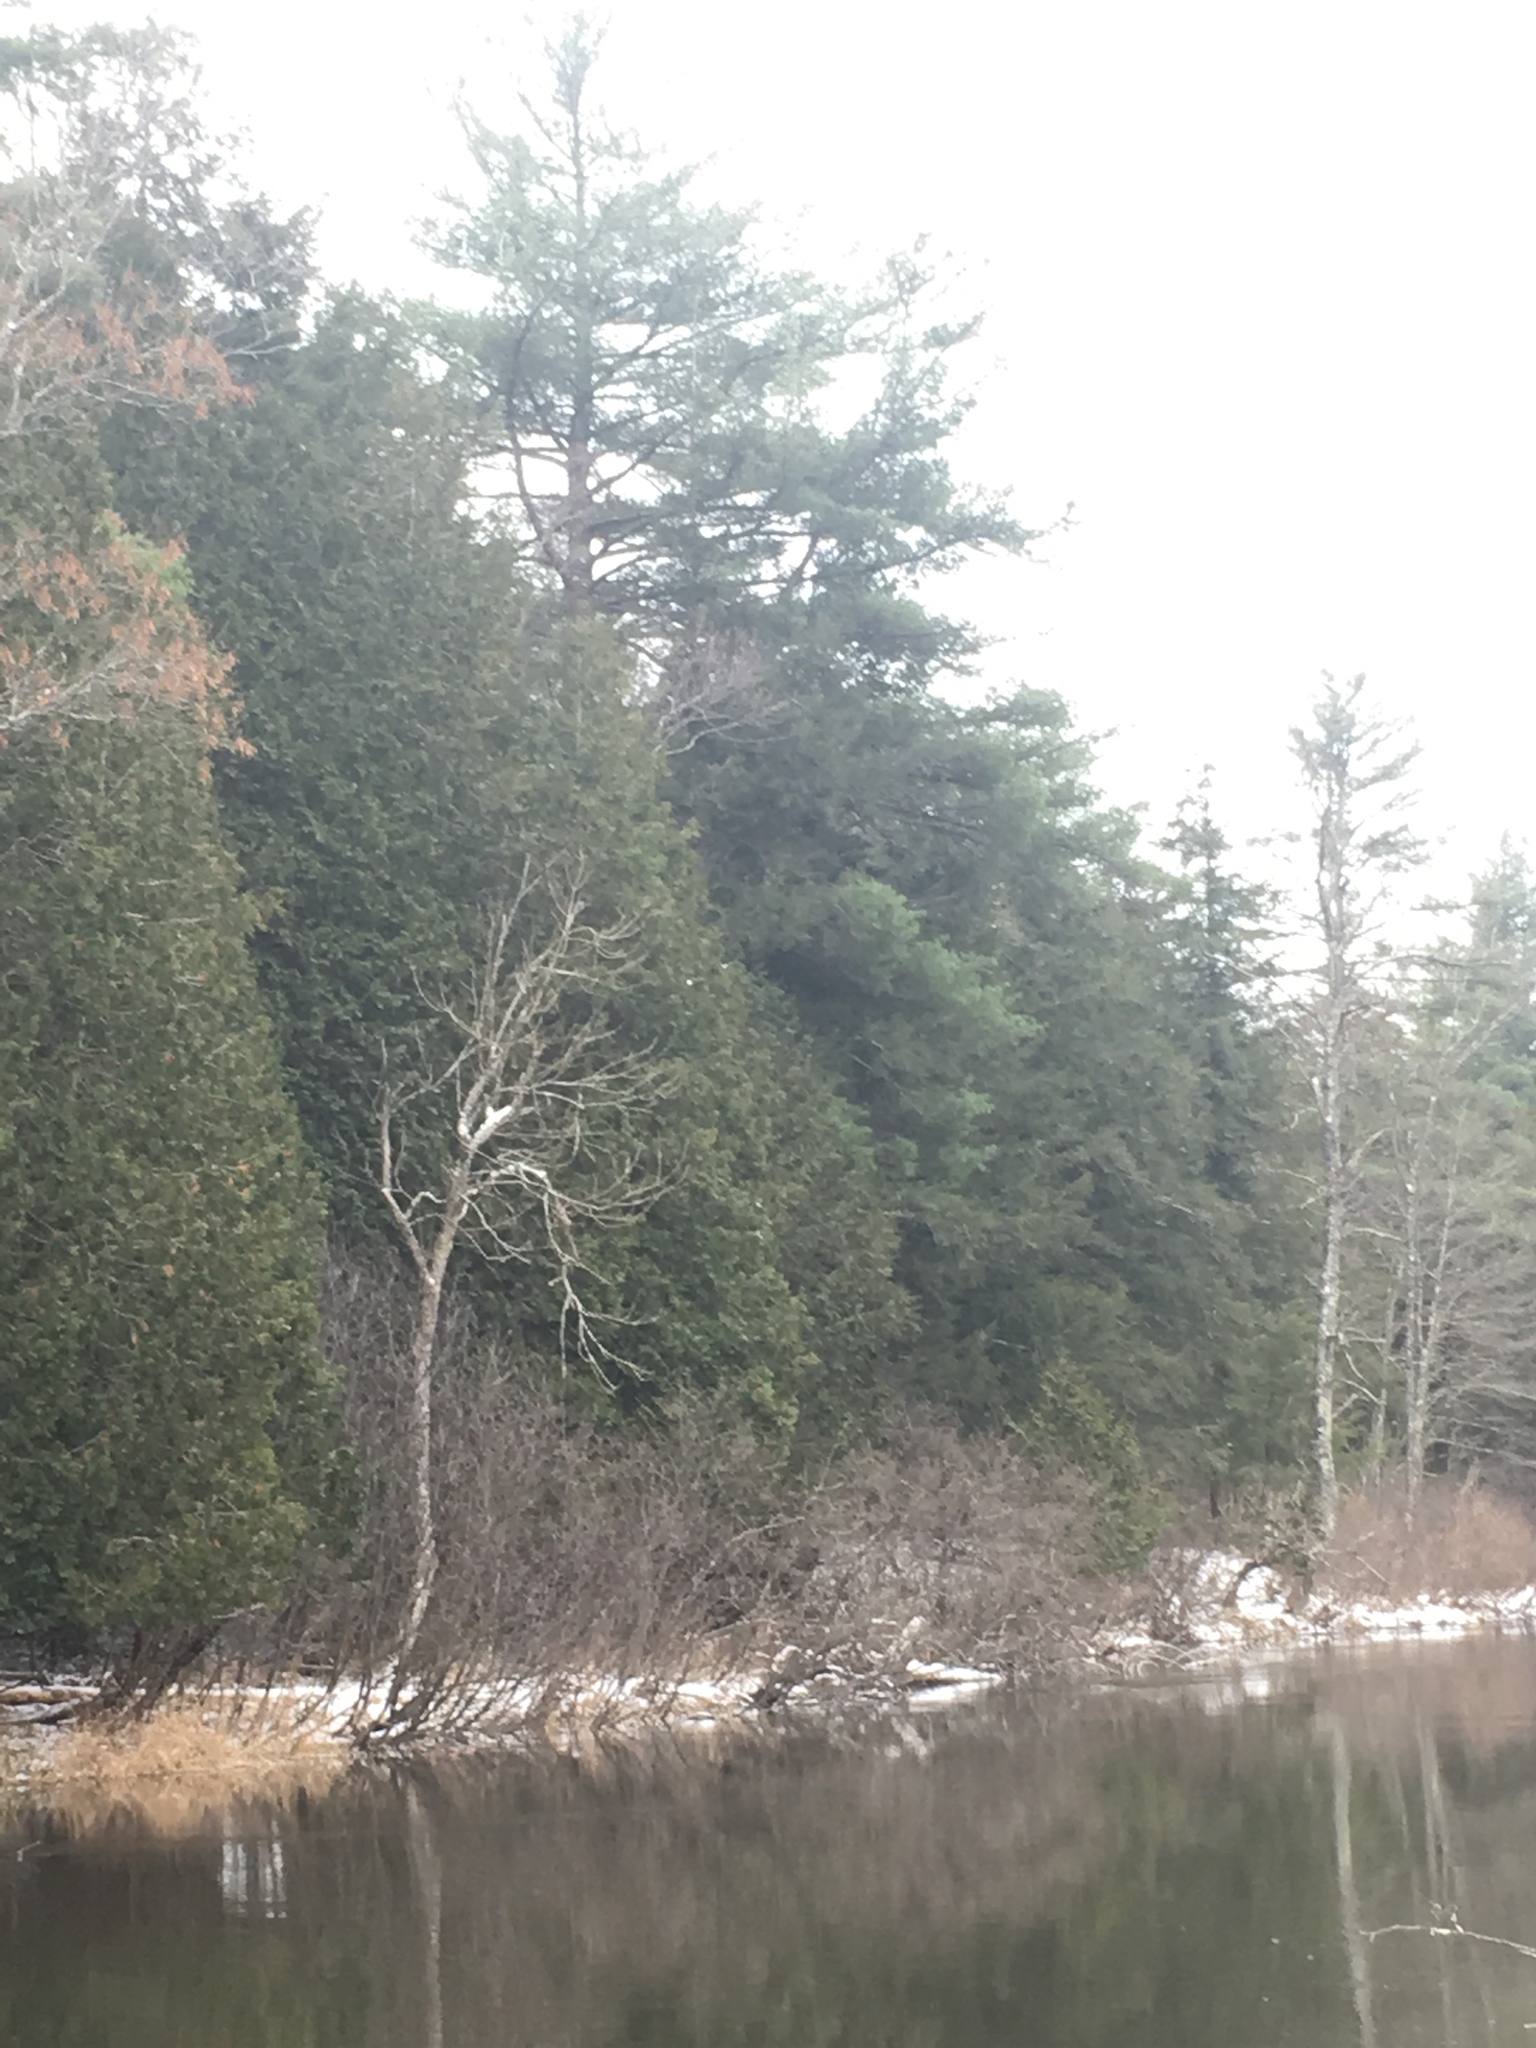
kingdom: Plantae
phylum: Tracheophyta
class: Pinopsida
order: Pinales
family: Pinaceae
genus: Pinus
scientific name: Pinus strobus
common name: Weymouth pine
